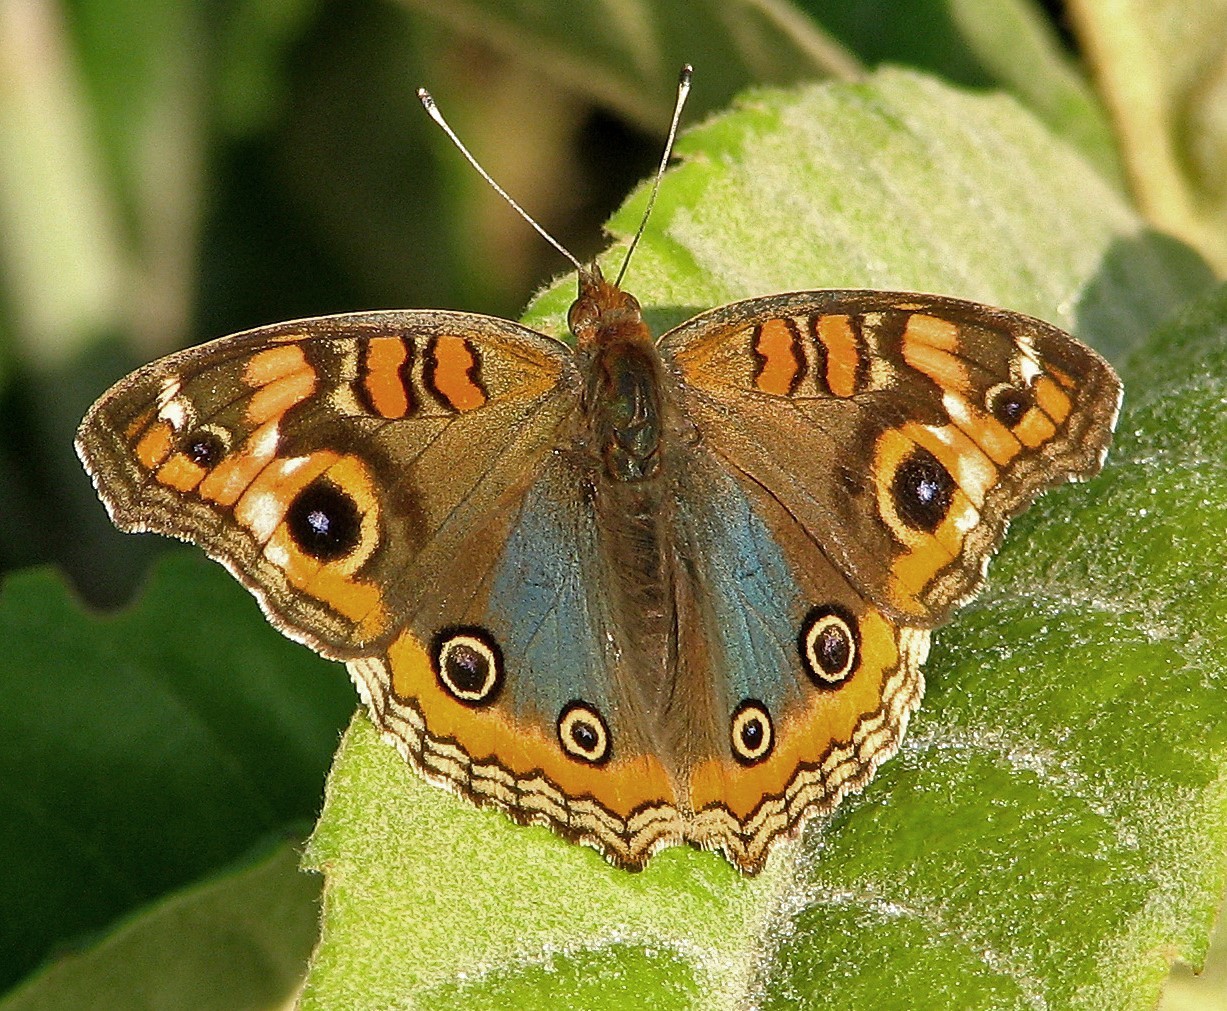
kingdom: Animalia
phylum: Arthropoda
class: Insecta
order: Lepidoptera
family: Nymphalidae
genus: Junonia
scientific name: Junonia lavinia
